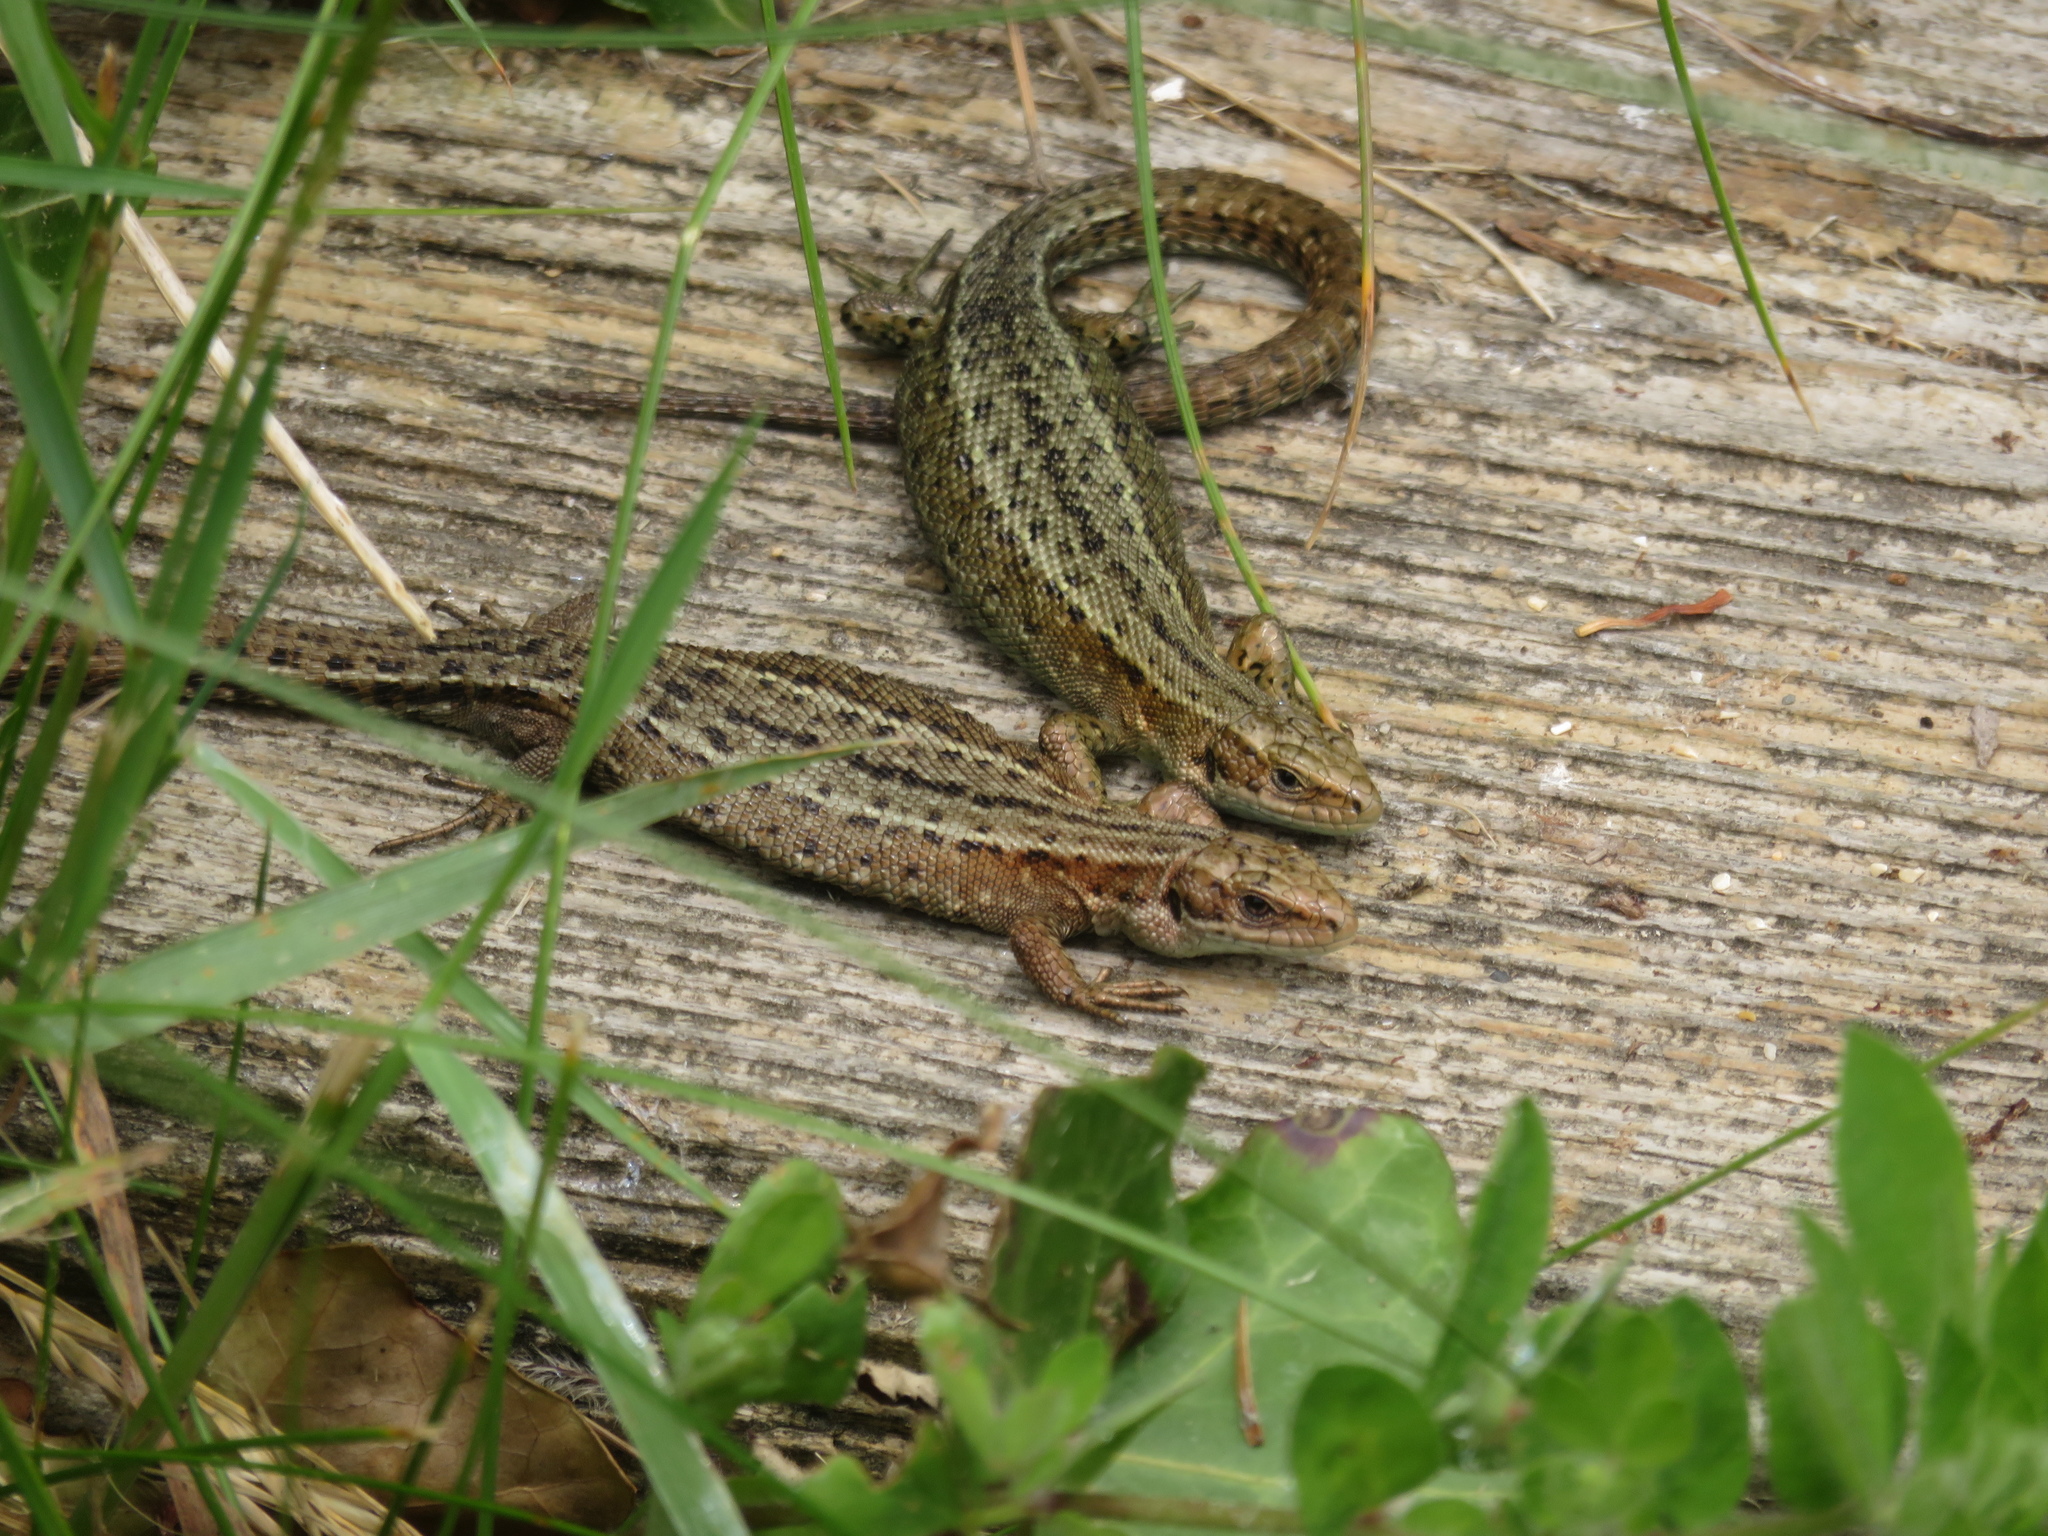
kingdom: Animalia
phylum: Chordata
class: Squamata
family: Lacertidae
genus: Zootoca
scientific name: Zootoca vivipara
